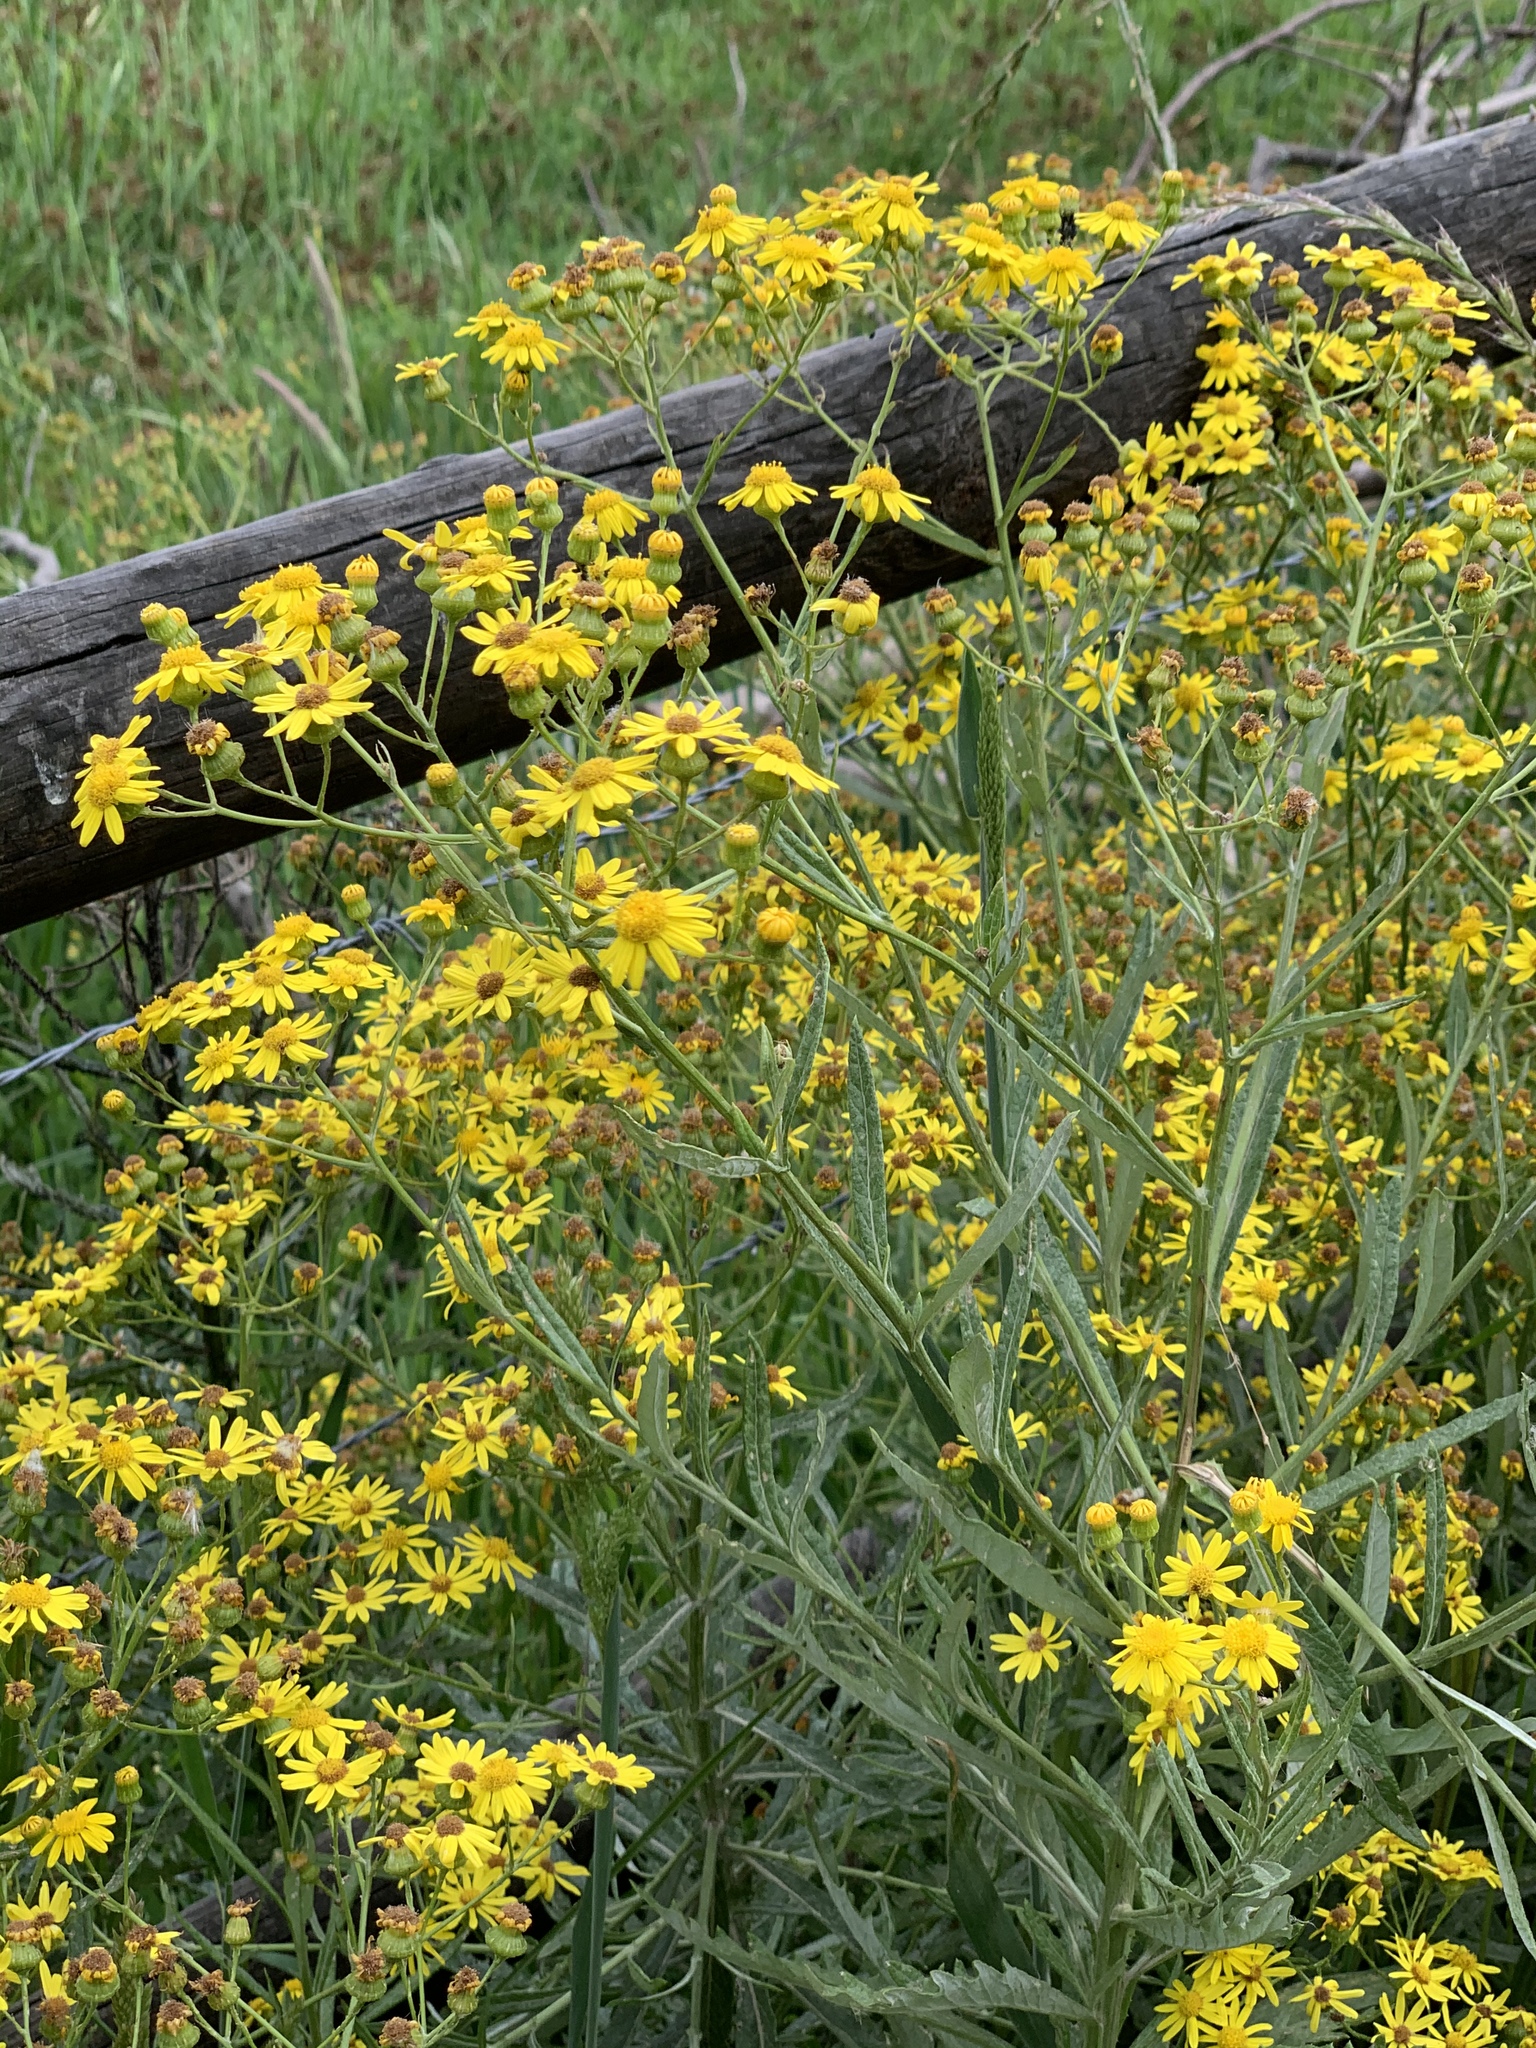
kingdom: Plantae
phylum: Tracheophyta
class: Magnoliopsida
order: Asterales
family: Asteraceae
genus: Senecio
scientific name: Senecio pterophorus
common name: Shoddy ragwort
